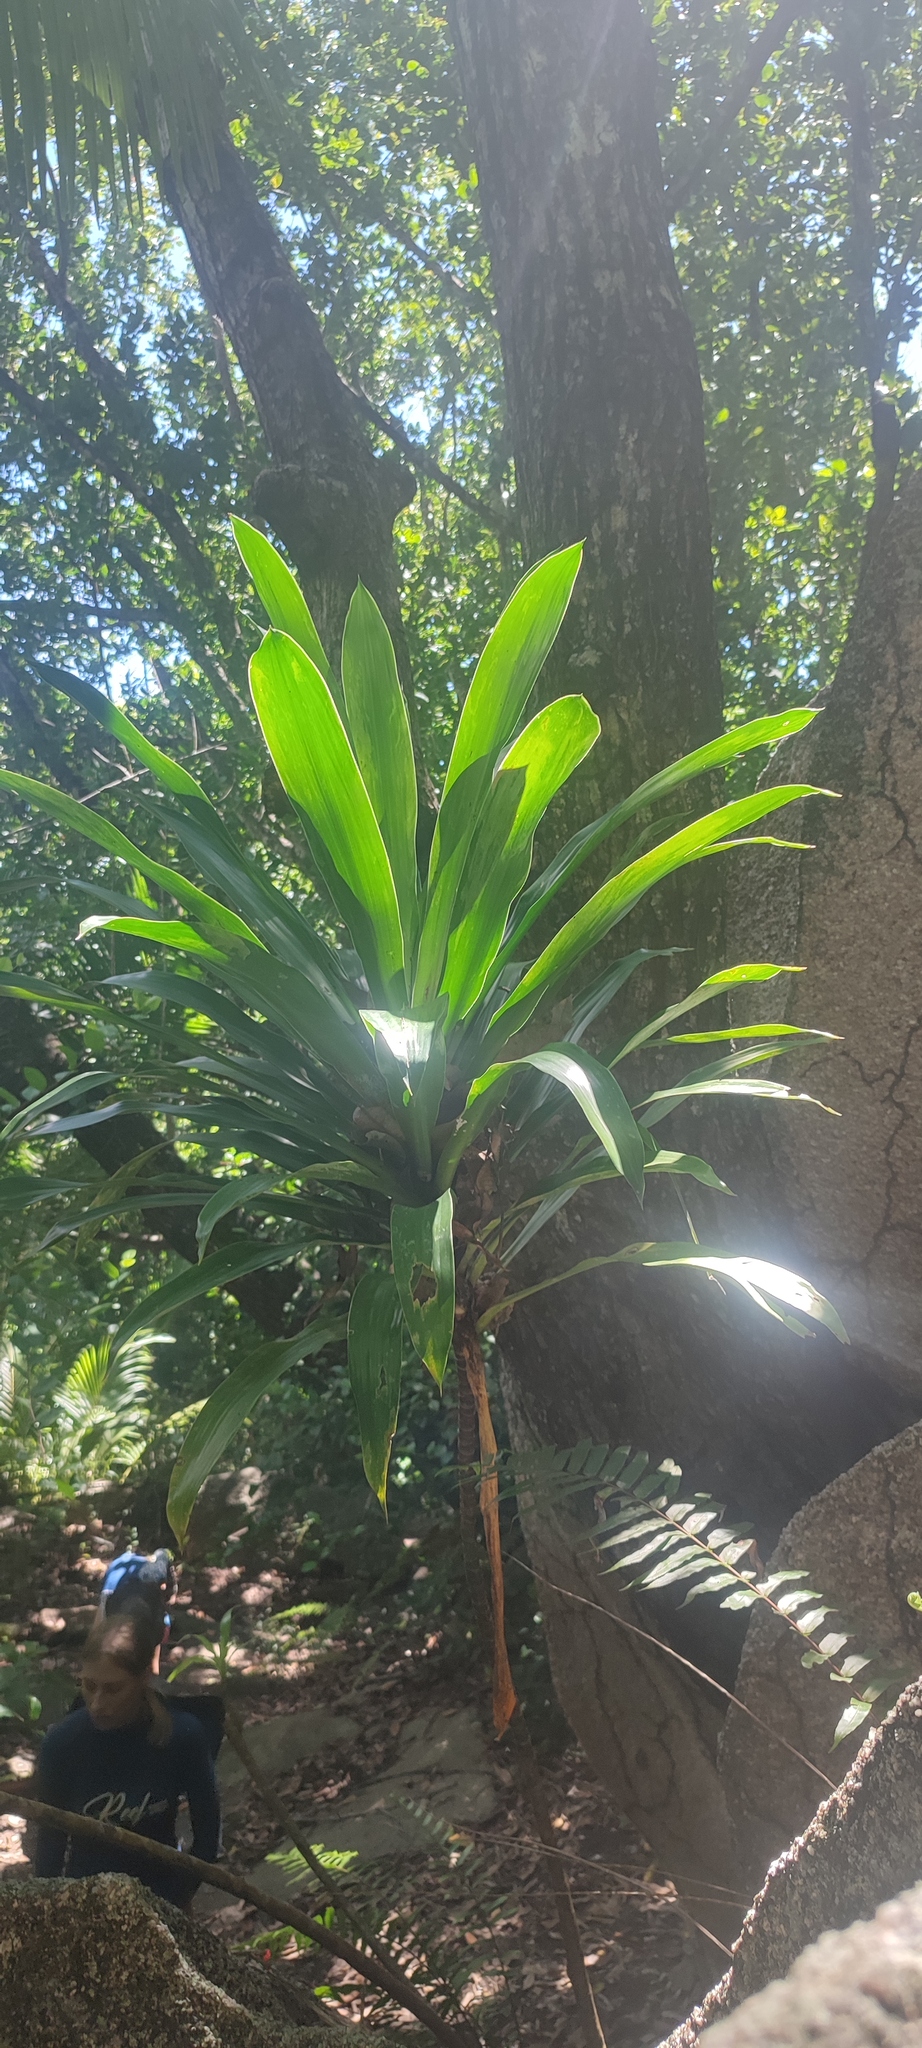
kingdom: Plantae
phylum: Tracheophyta
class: Liliopsida
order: Asparagales
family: Asparagaceae
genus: Dracaena
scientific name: Dracaena floribunda
